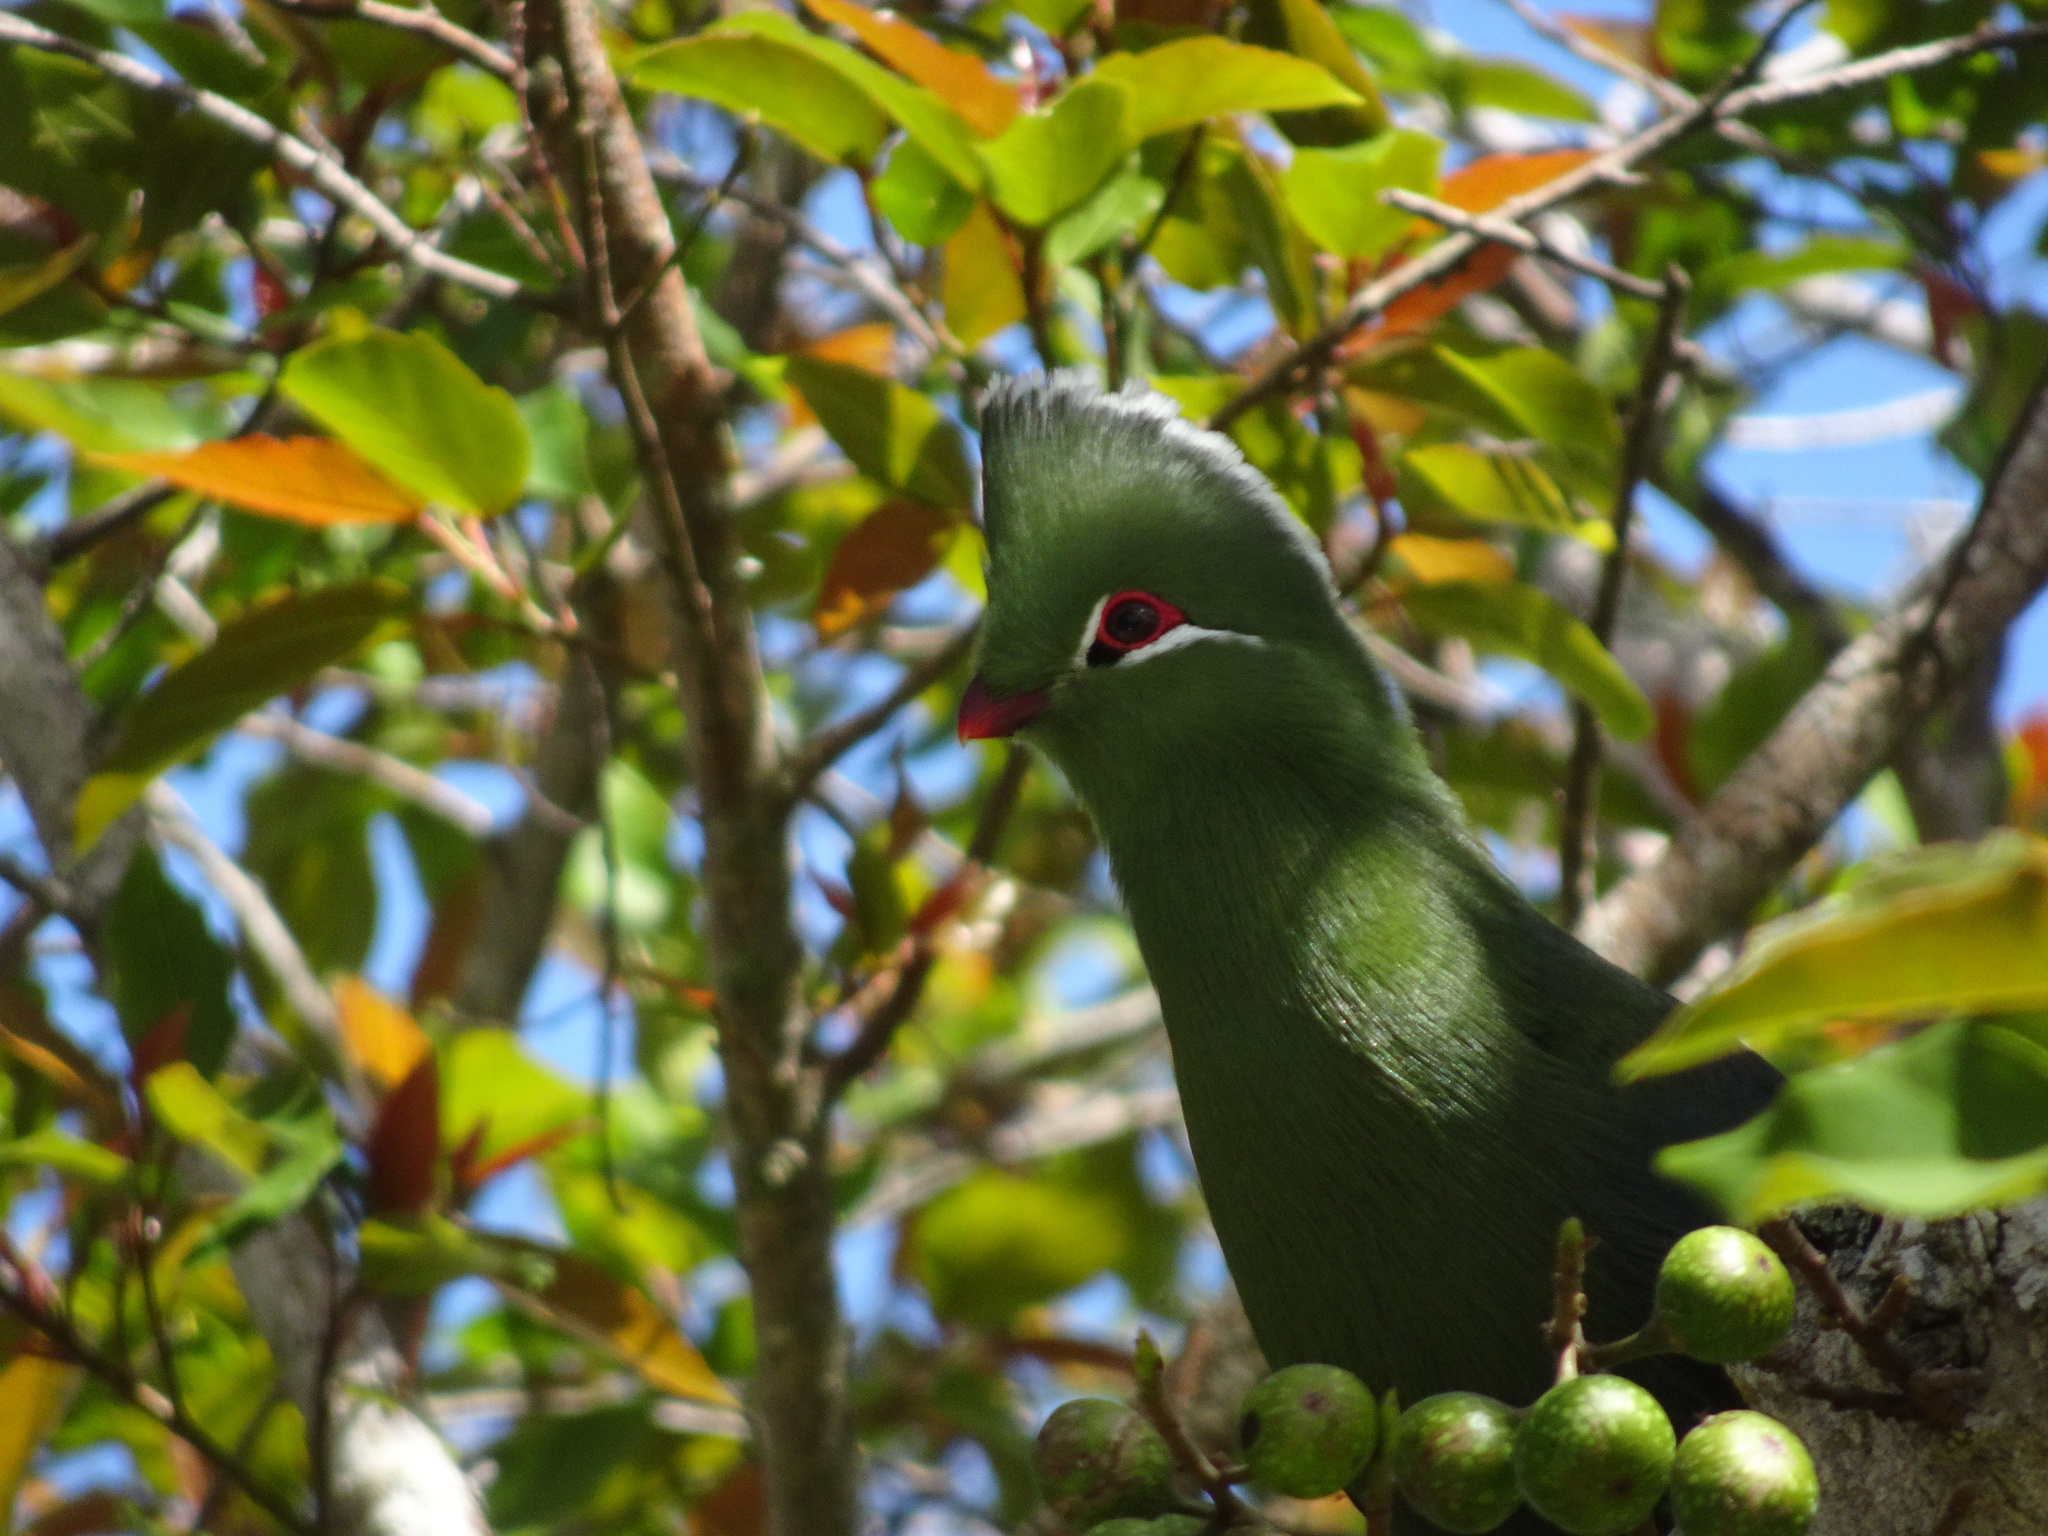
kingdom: Animalia
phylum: Chordata
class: Aves
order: Musophagiformes
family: Musophagidae
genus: Tauraco
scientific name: Tauraco corythaix
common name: Knysna turaco
